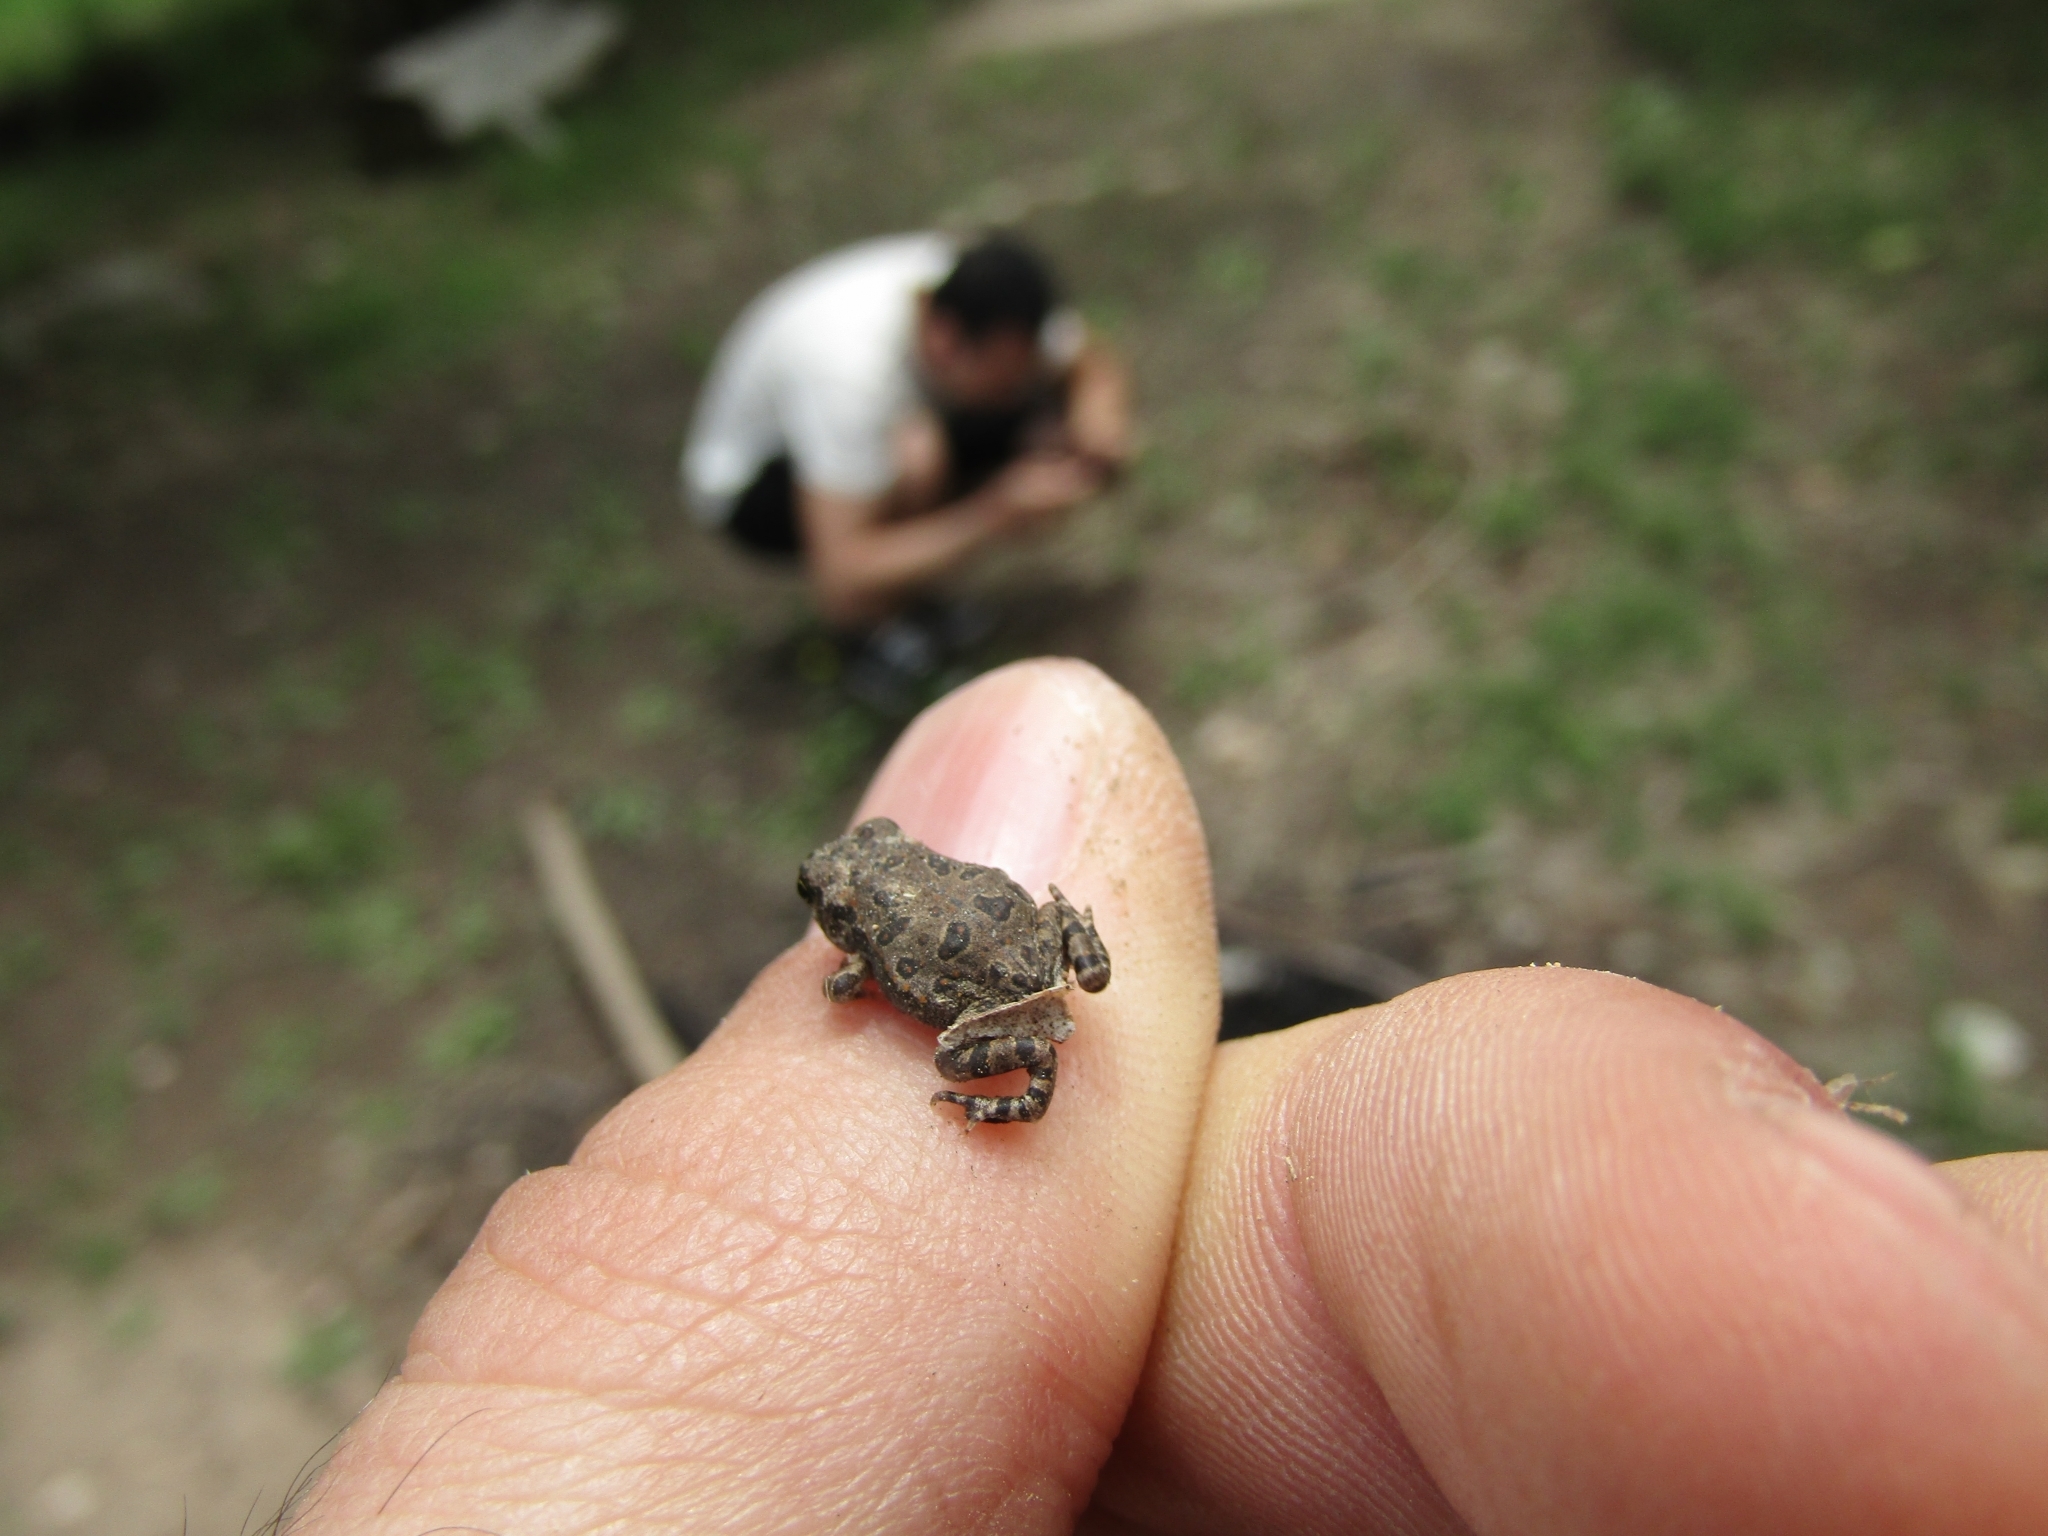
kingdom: Animalia
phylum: Chordata
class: Amphibia
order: Anura
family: Bufonidae
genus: Rhinella
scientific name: Rhinella arenarum
